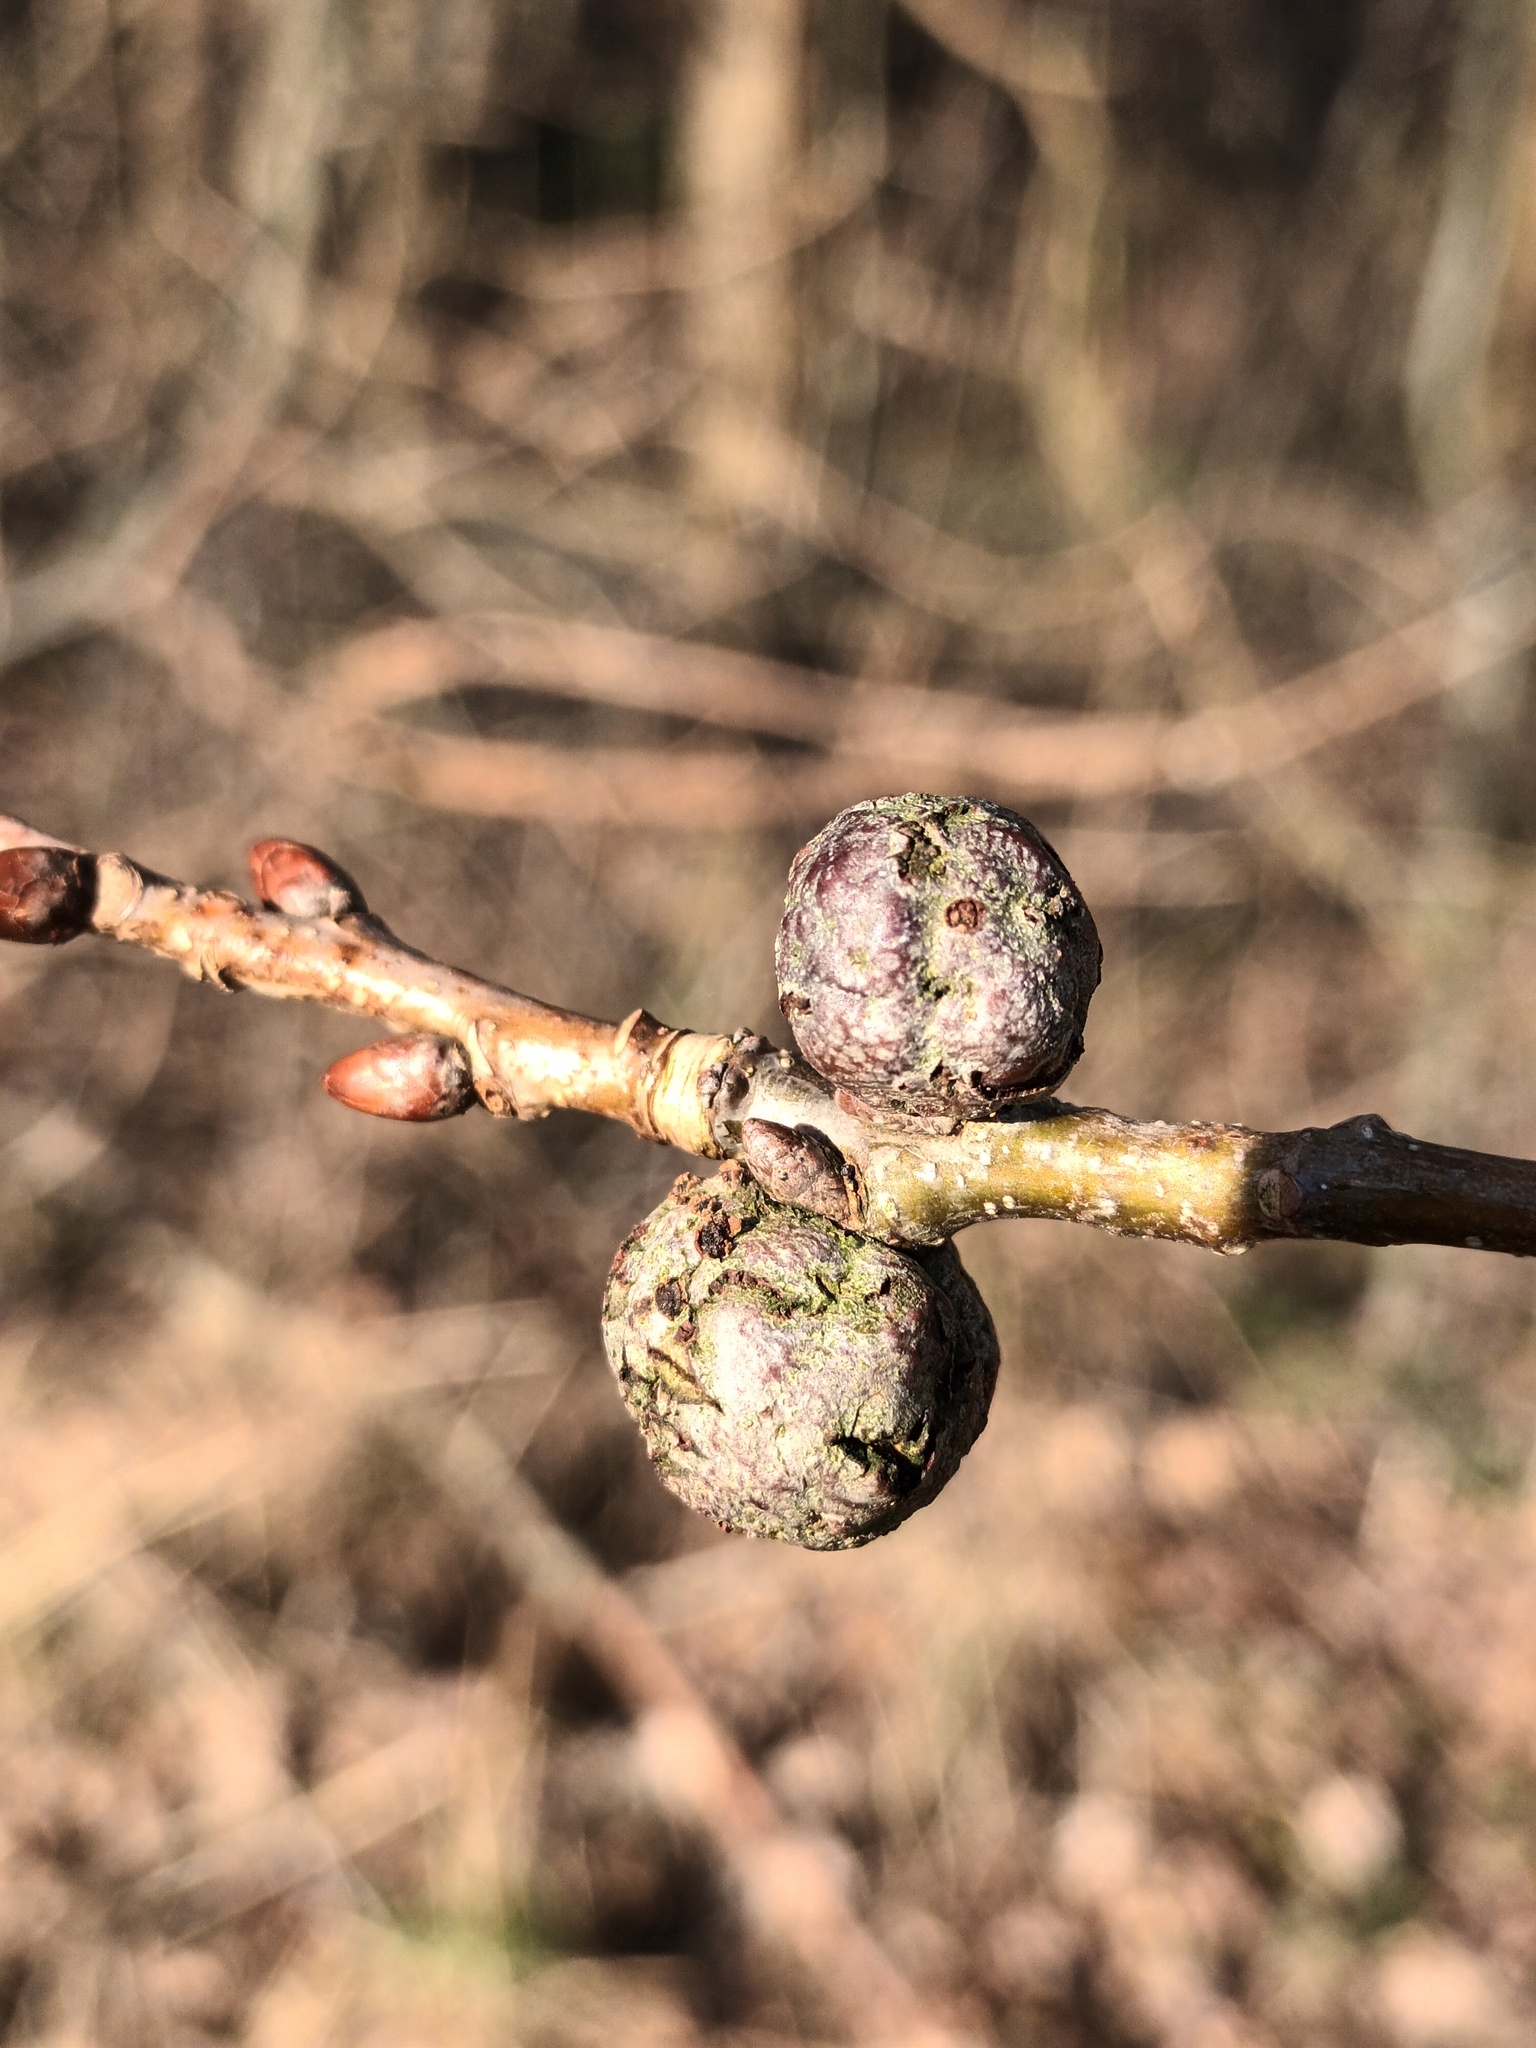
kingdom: Animalia
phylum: Arthropoda
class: Insecta
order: Hymenoptera
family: Cynipidae
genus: Andricus
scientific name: Andricus lignicolus
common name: Cola-nut gall
